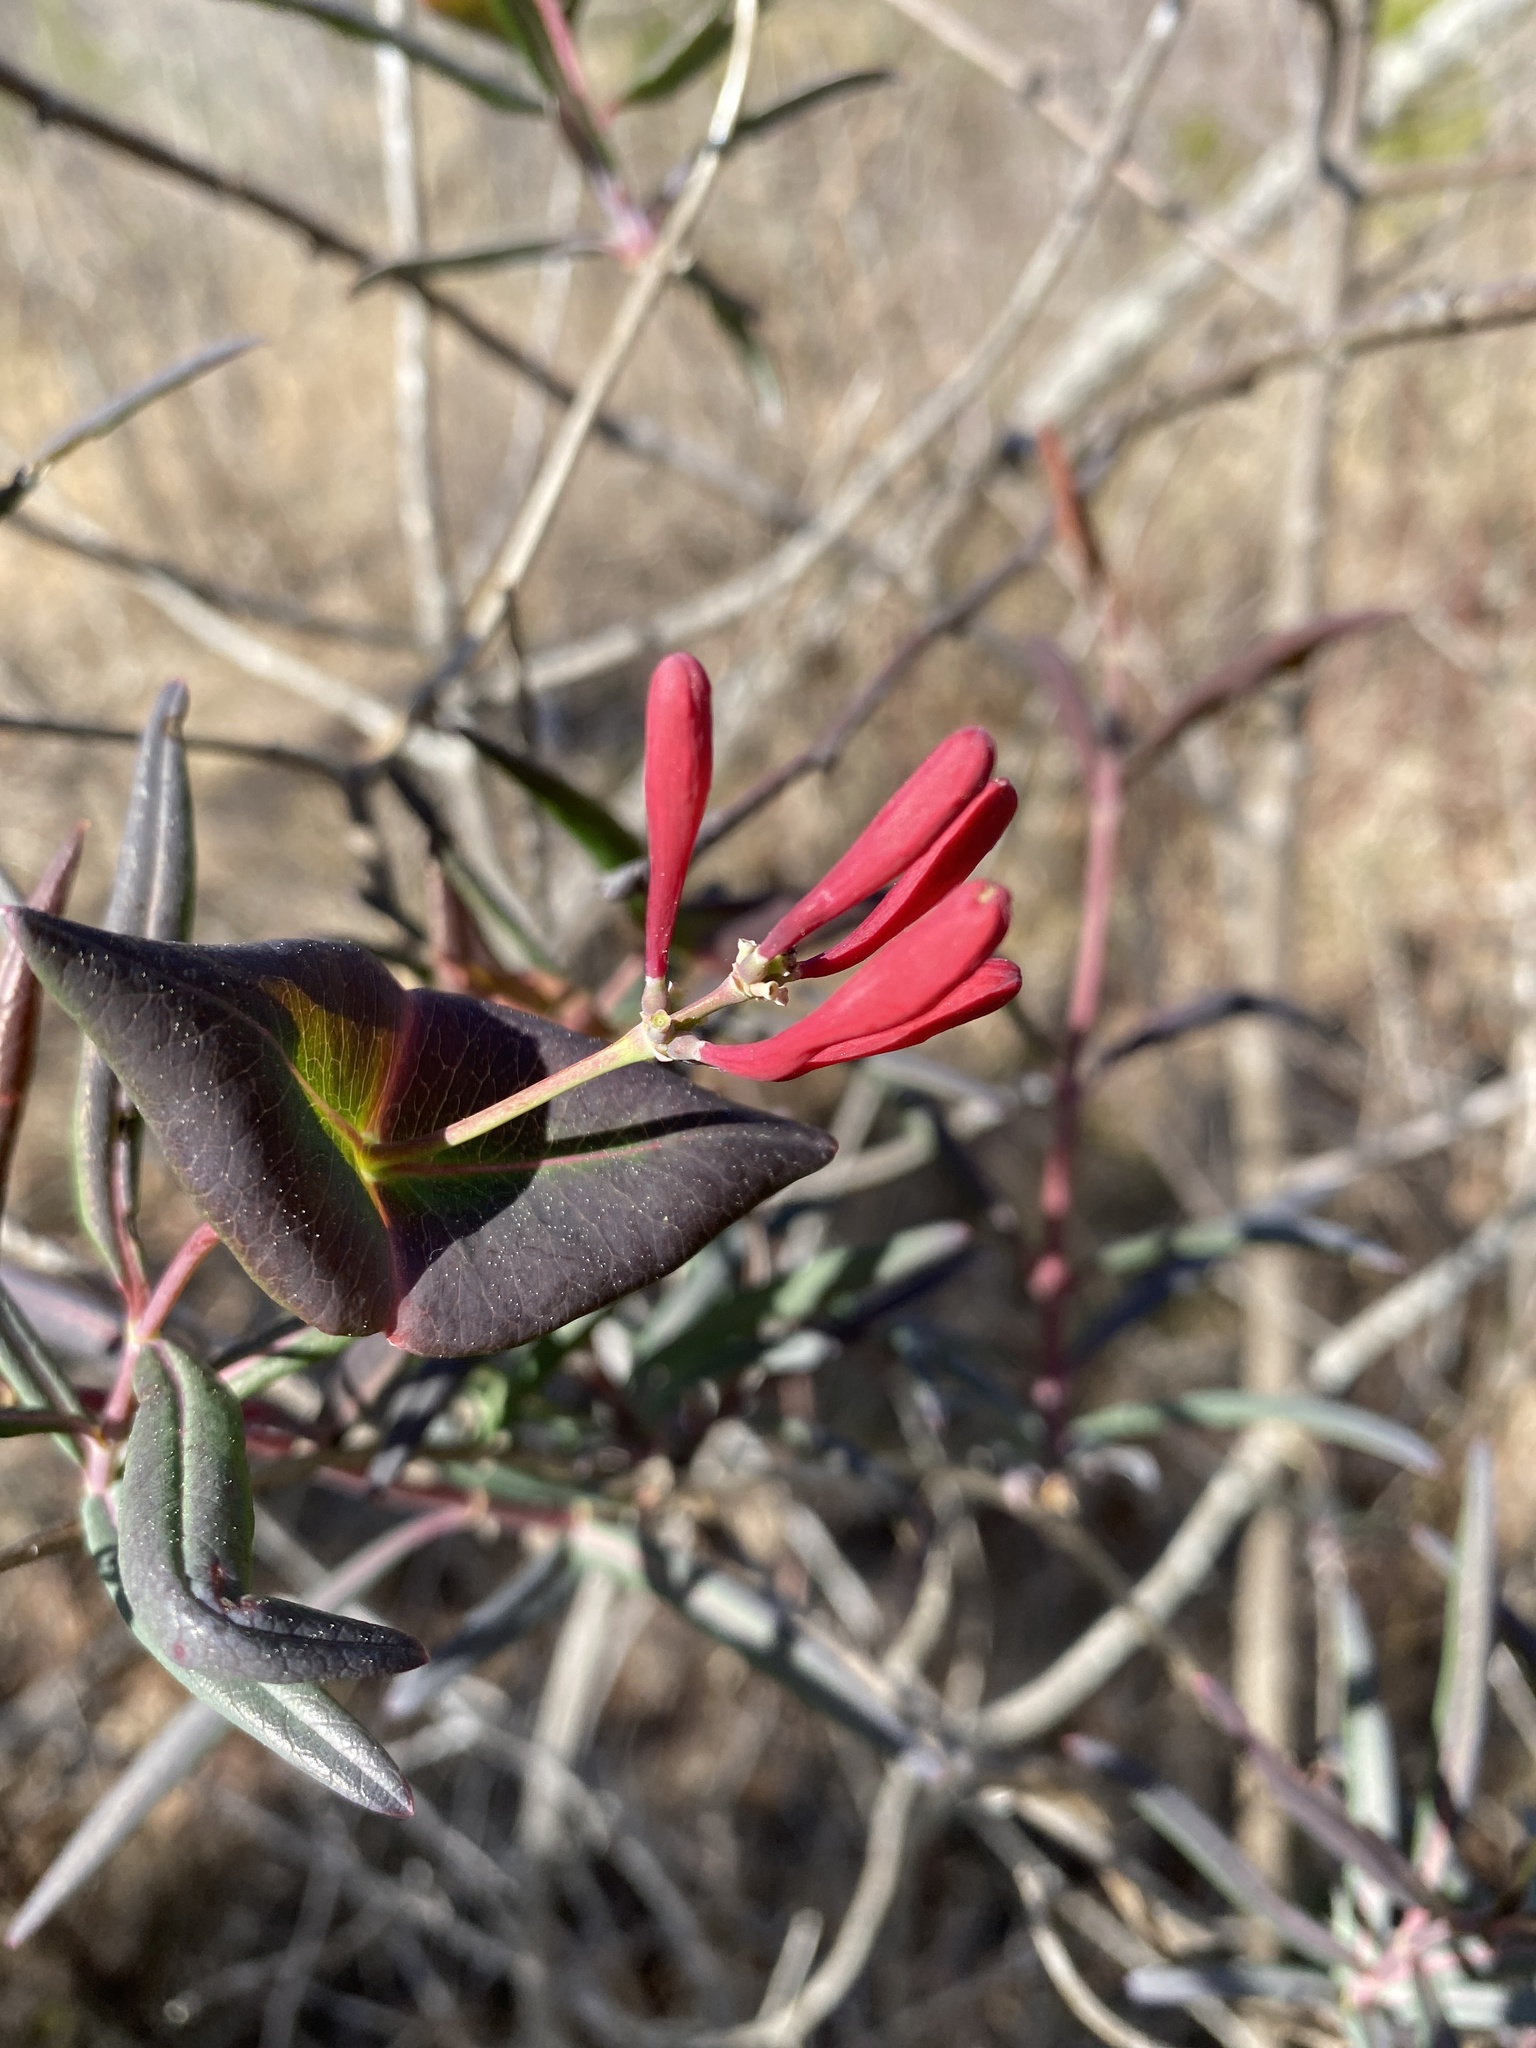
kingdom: Plantae
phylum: Tracheophyta
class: Magnoliopsida
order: Dipsacales
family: Caprifoliaceae
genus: Lonicera
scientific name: Lonicera sempervirens
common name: Coral honeysuckle
